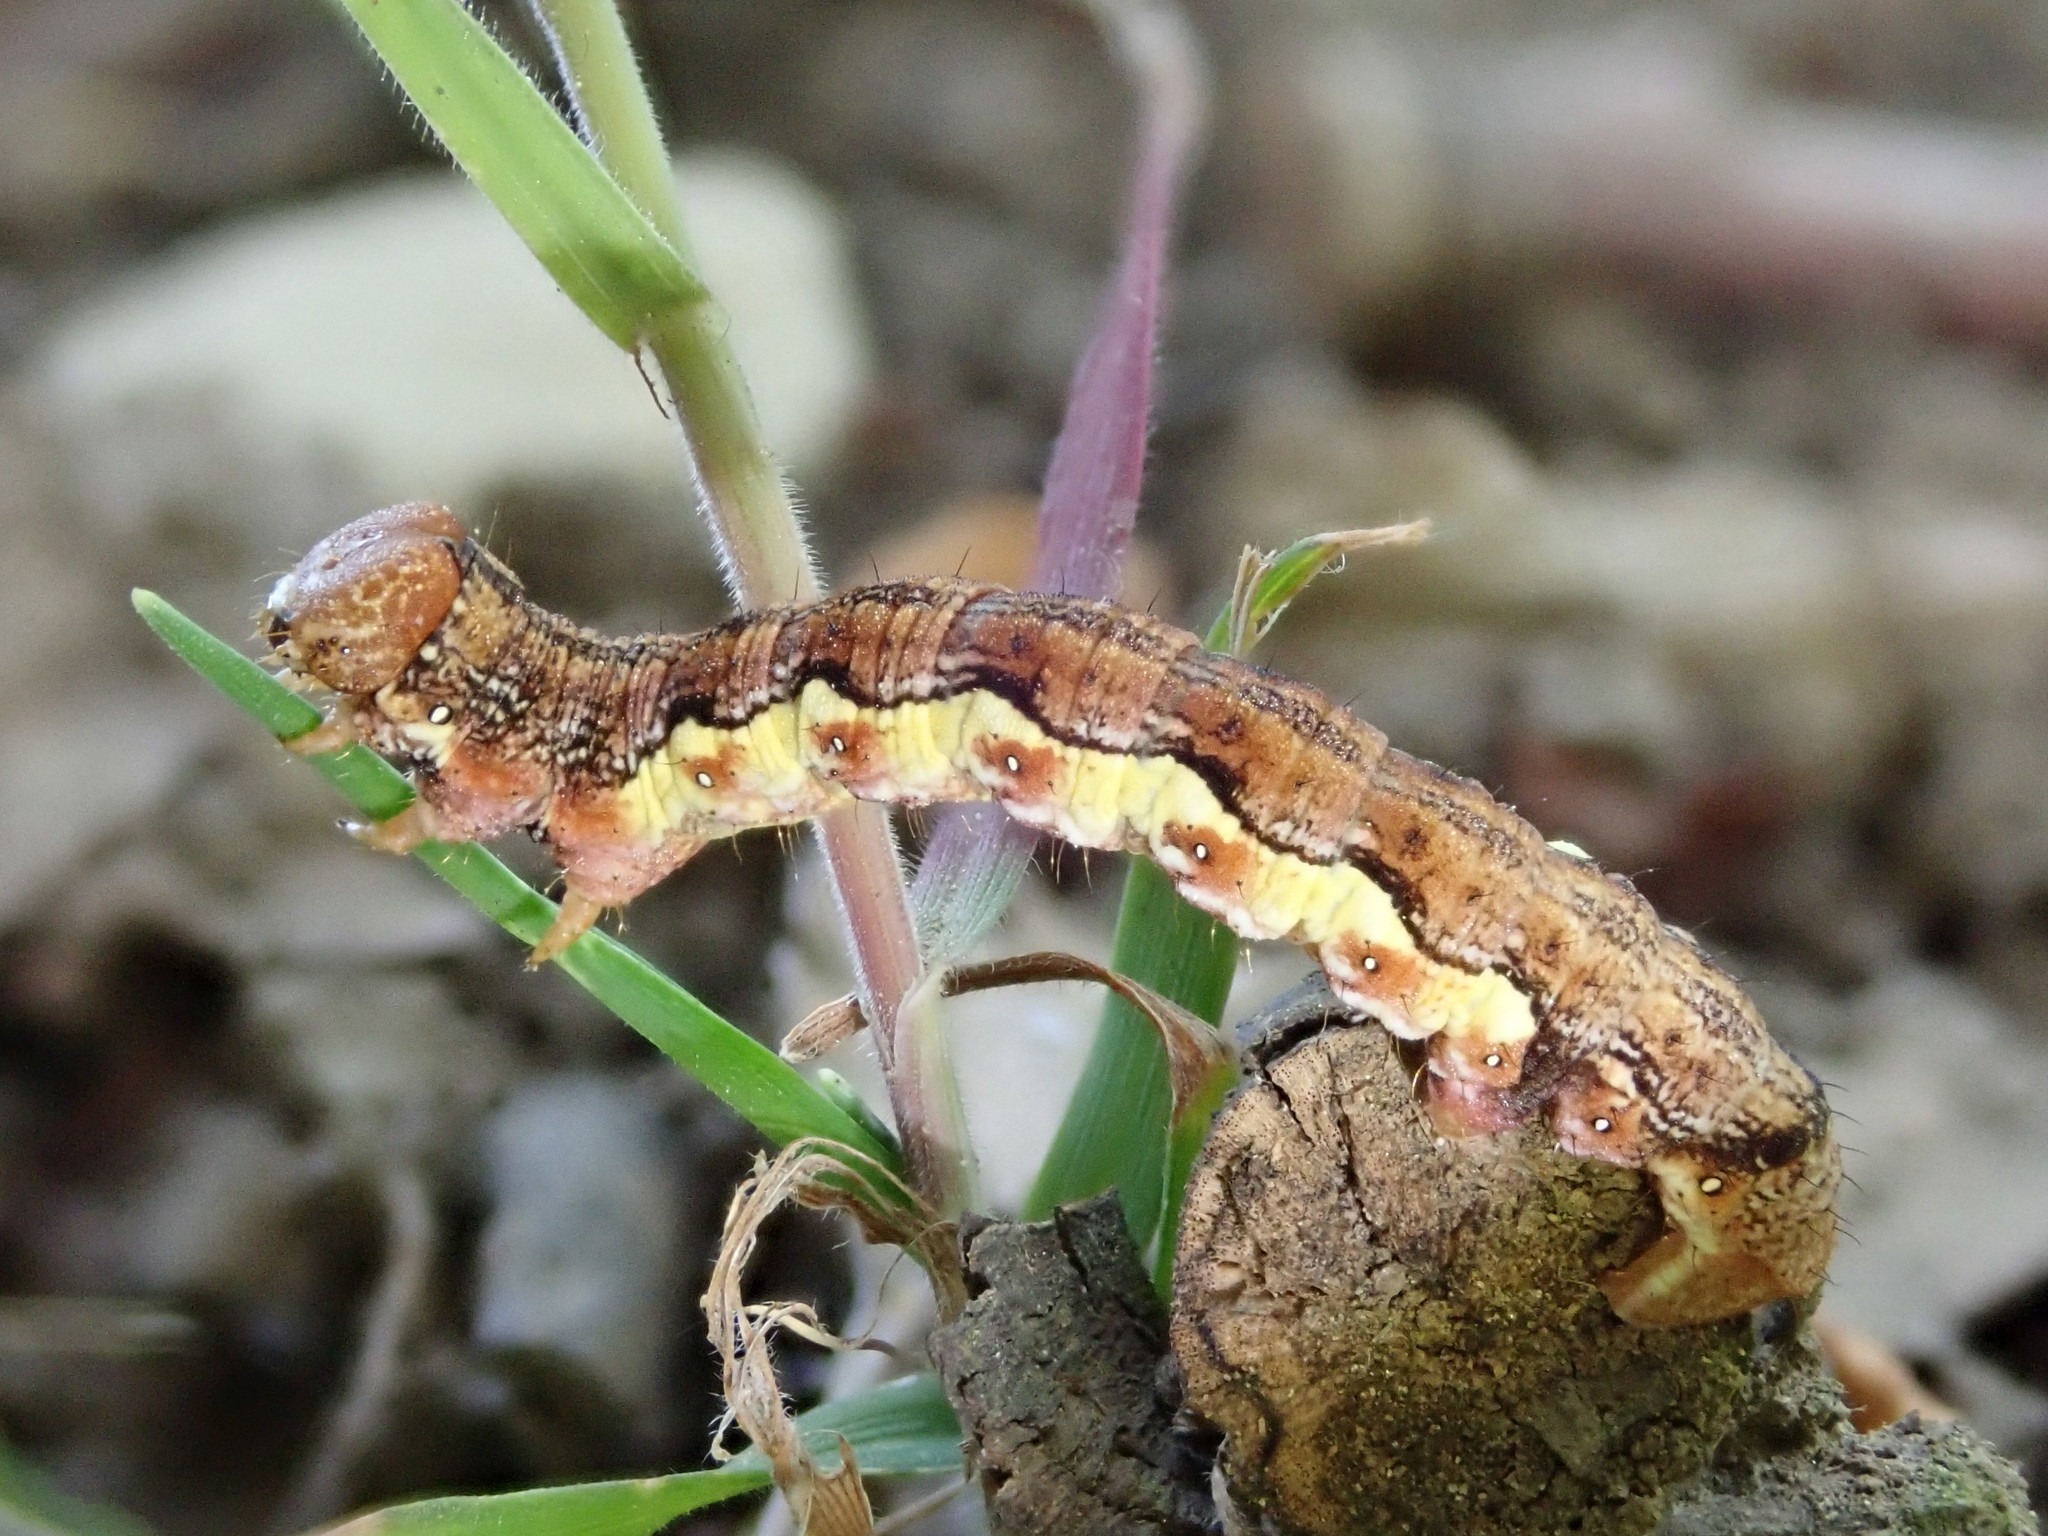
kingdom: Animalia
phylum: Arthropoda
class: Insecta
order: Lepidoptera
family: Geometridae
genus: Erannis
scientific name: Erannis defoliaria
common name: Mottled umber
